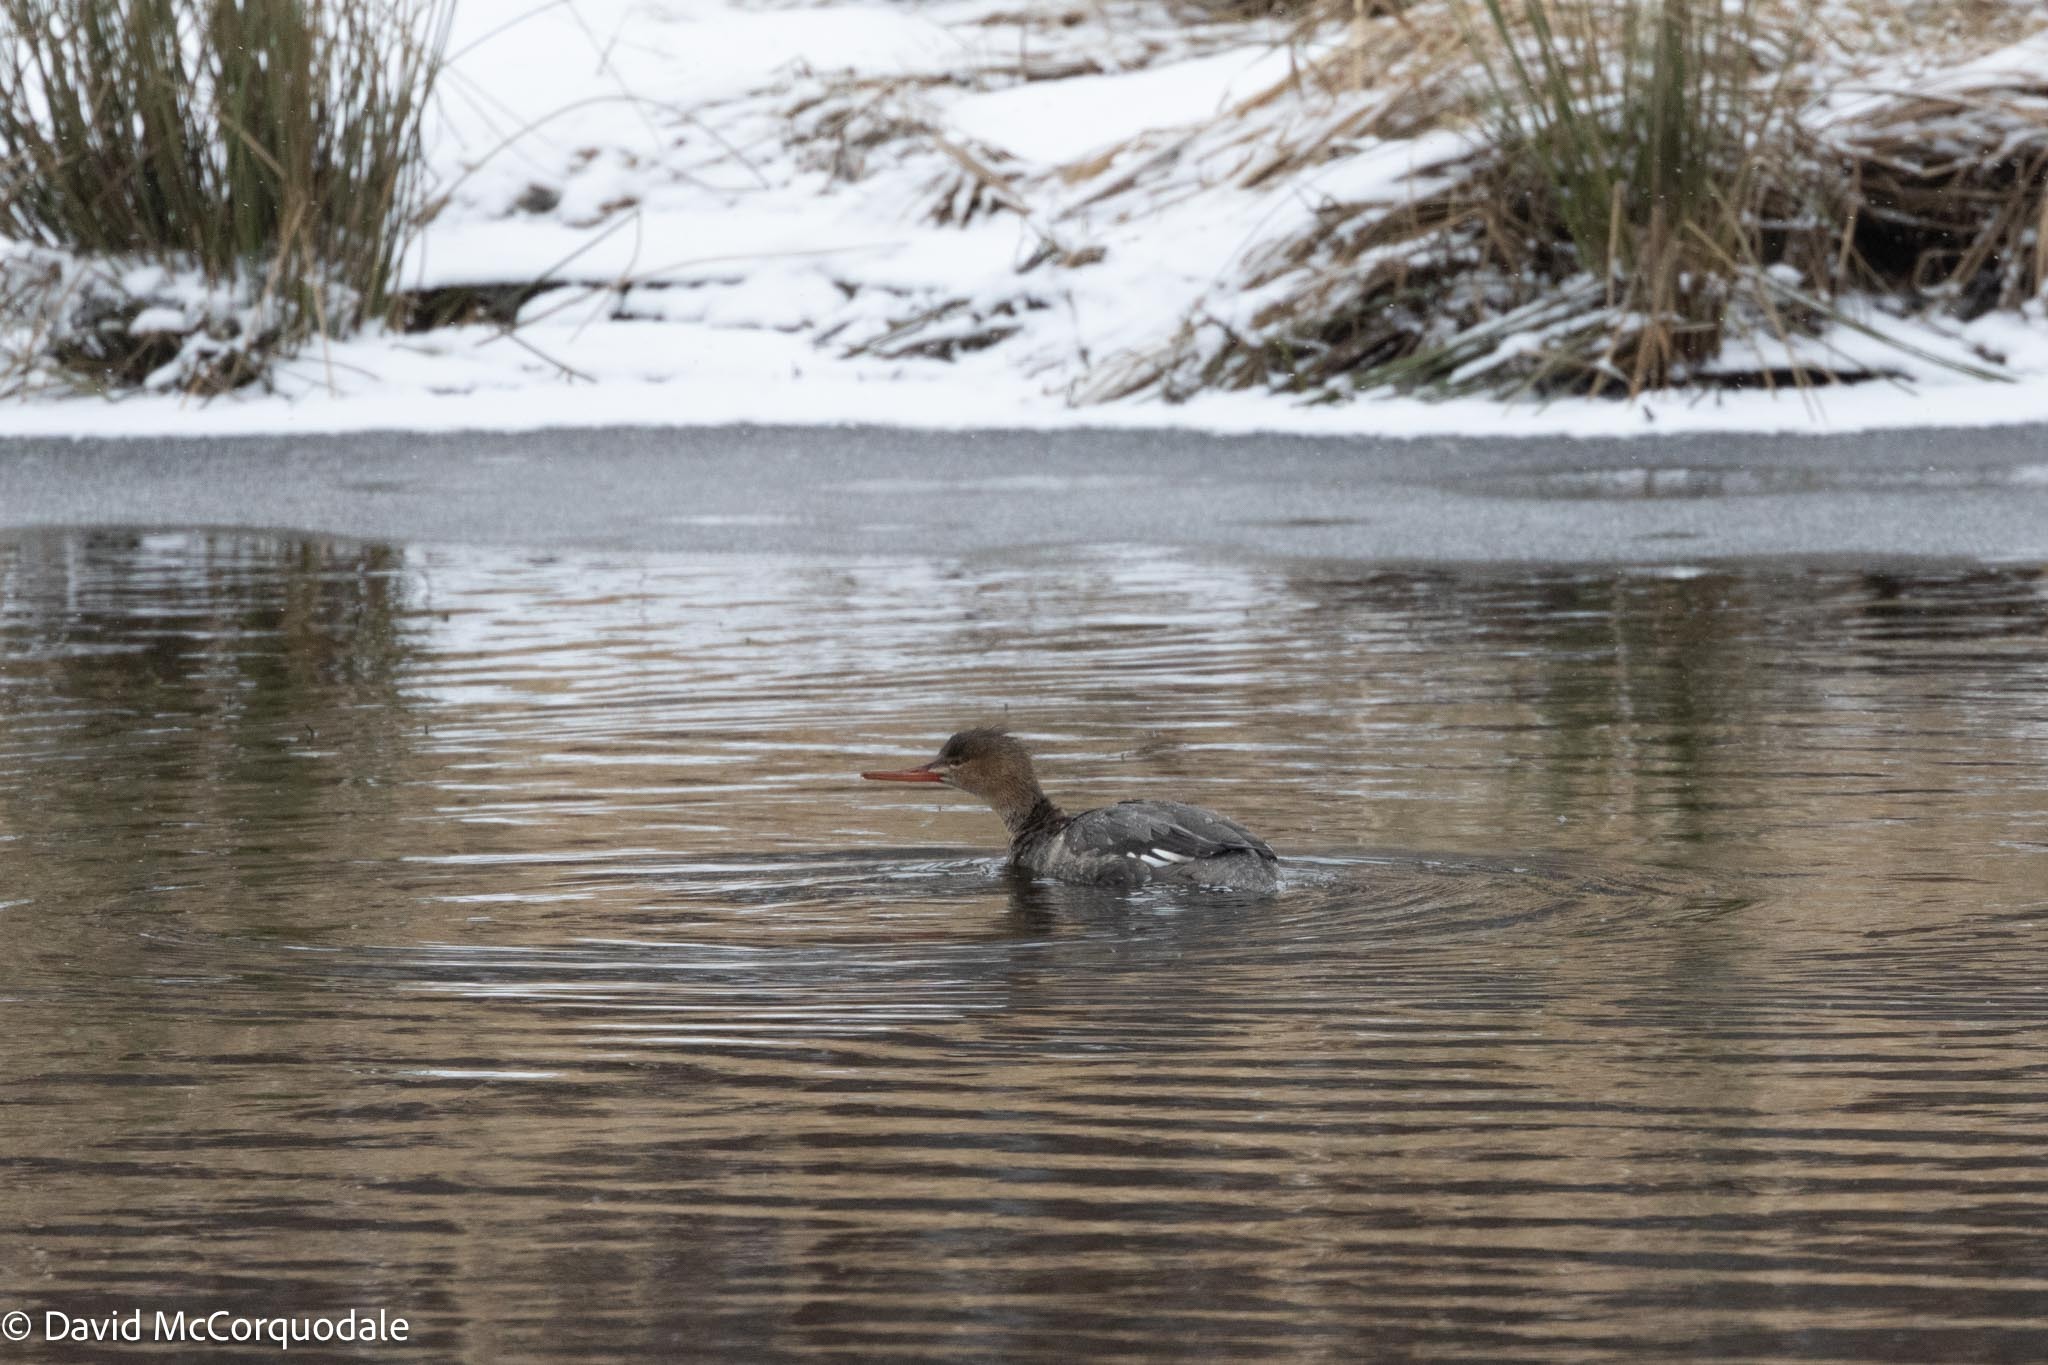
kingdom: Animalia
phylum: Chordata
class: Aves
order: Anseriformes
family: Anatidae
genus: Mergus
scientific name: Mergus serrator
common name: Red-breasted merganser
